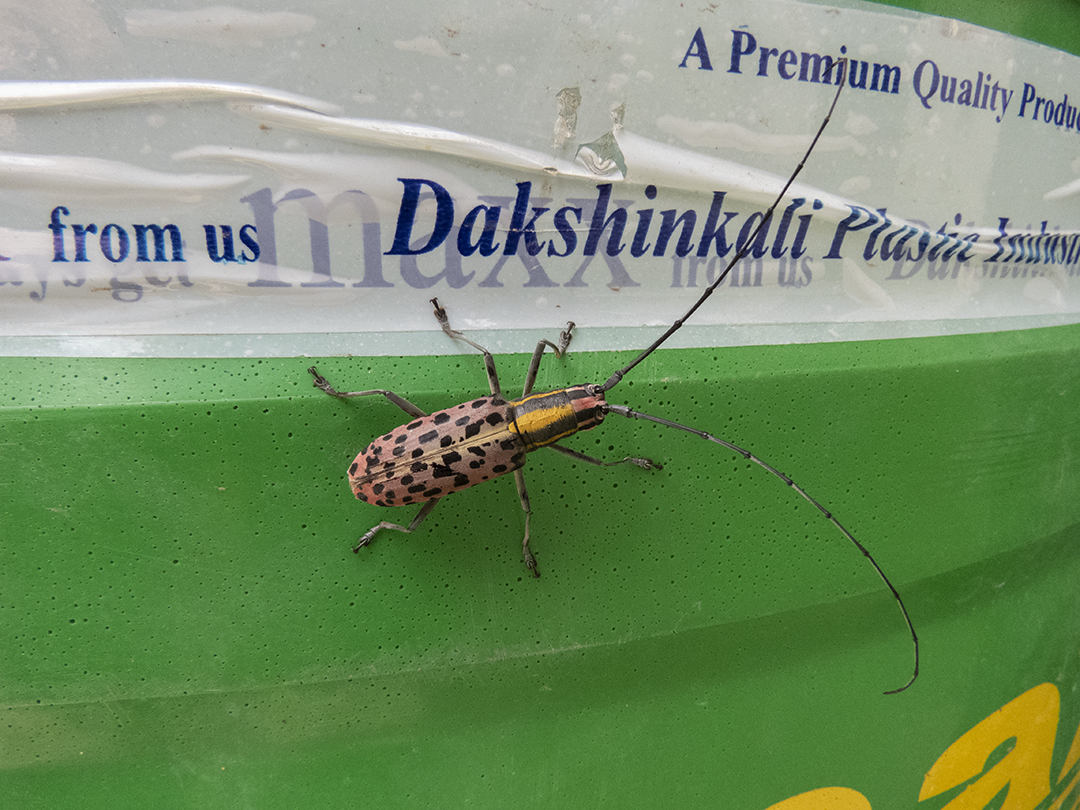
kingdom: Animalia
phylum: Arthropoda
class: Insecta
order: Coleoptera
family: Cerambycidae
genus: Macrochenus
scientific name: Macrochenus guerinii
